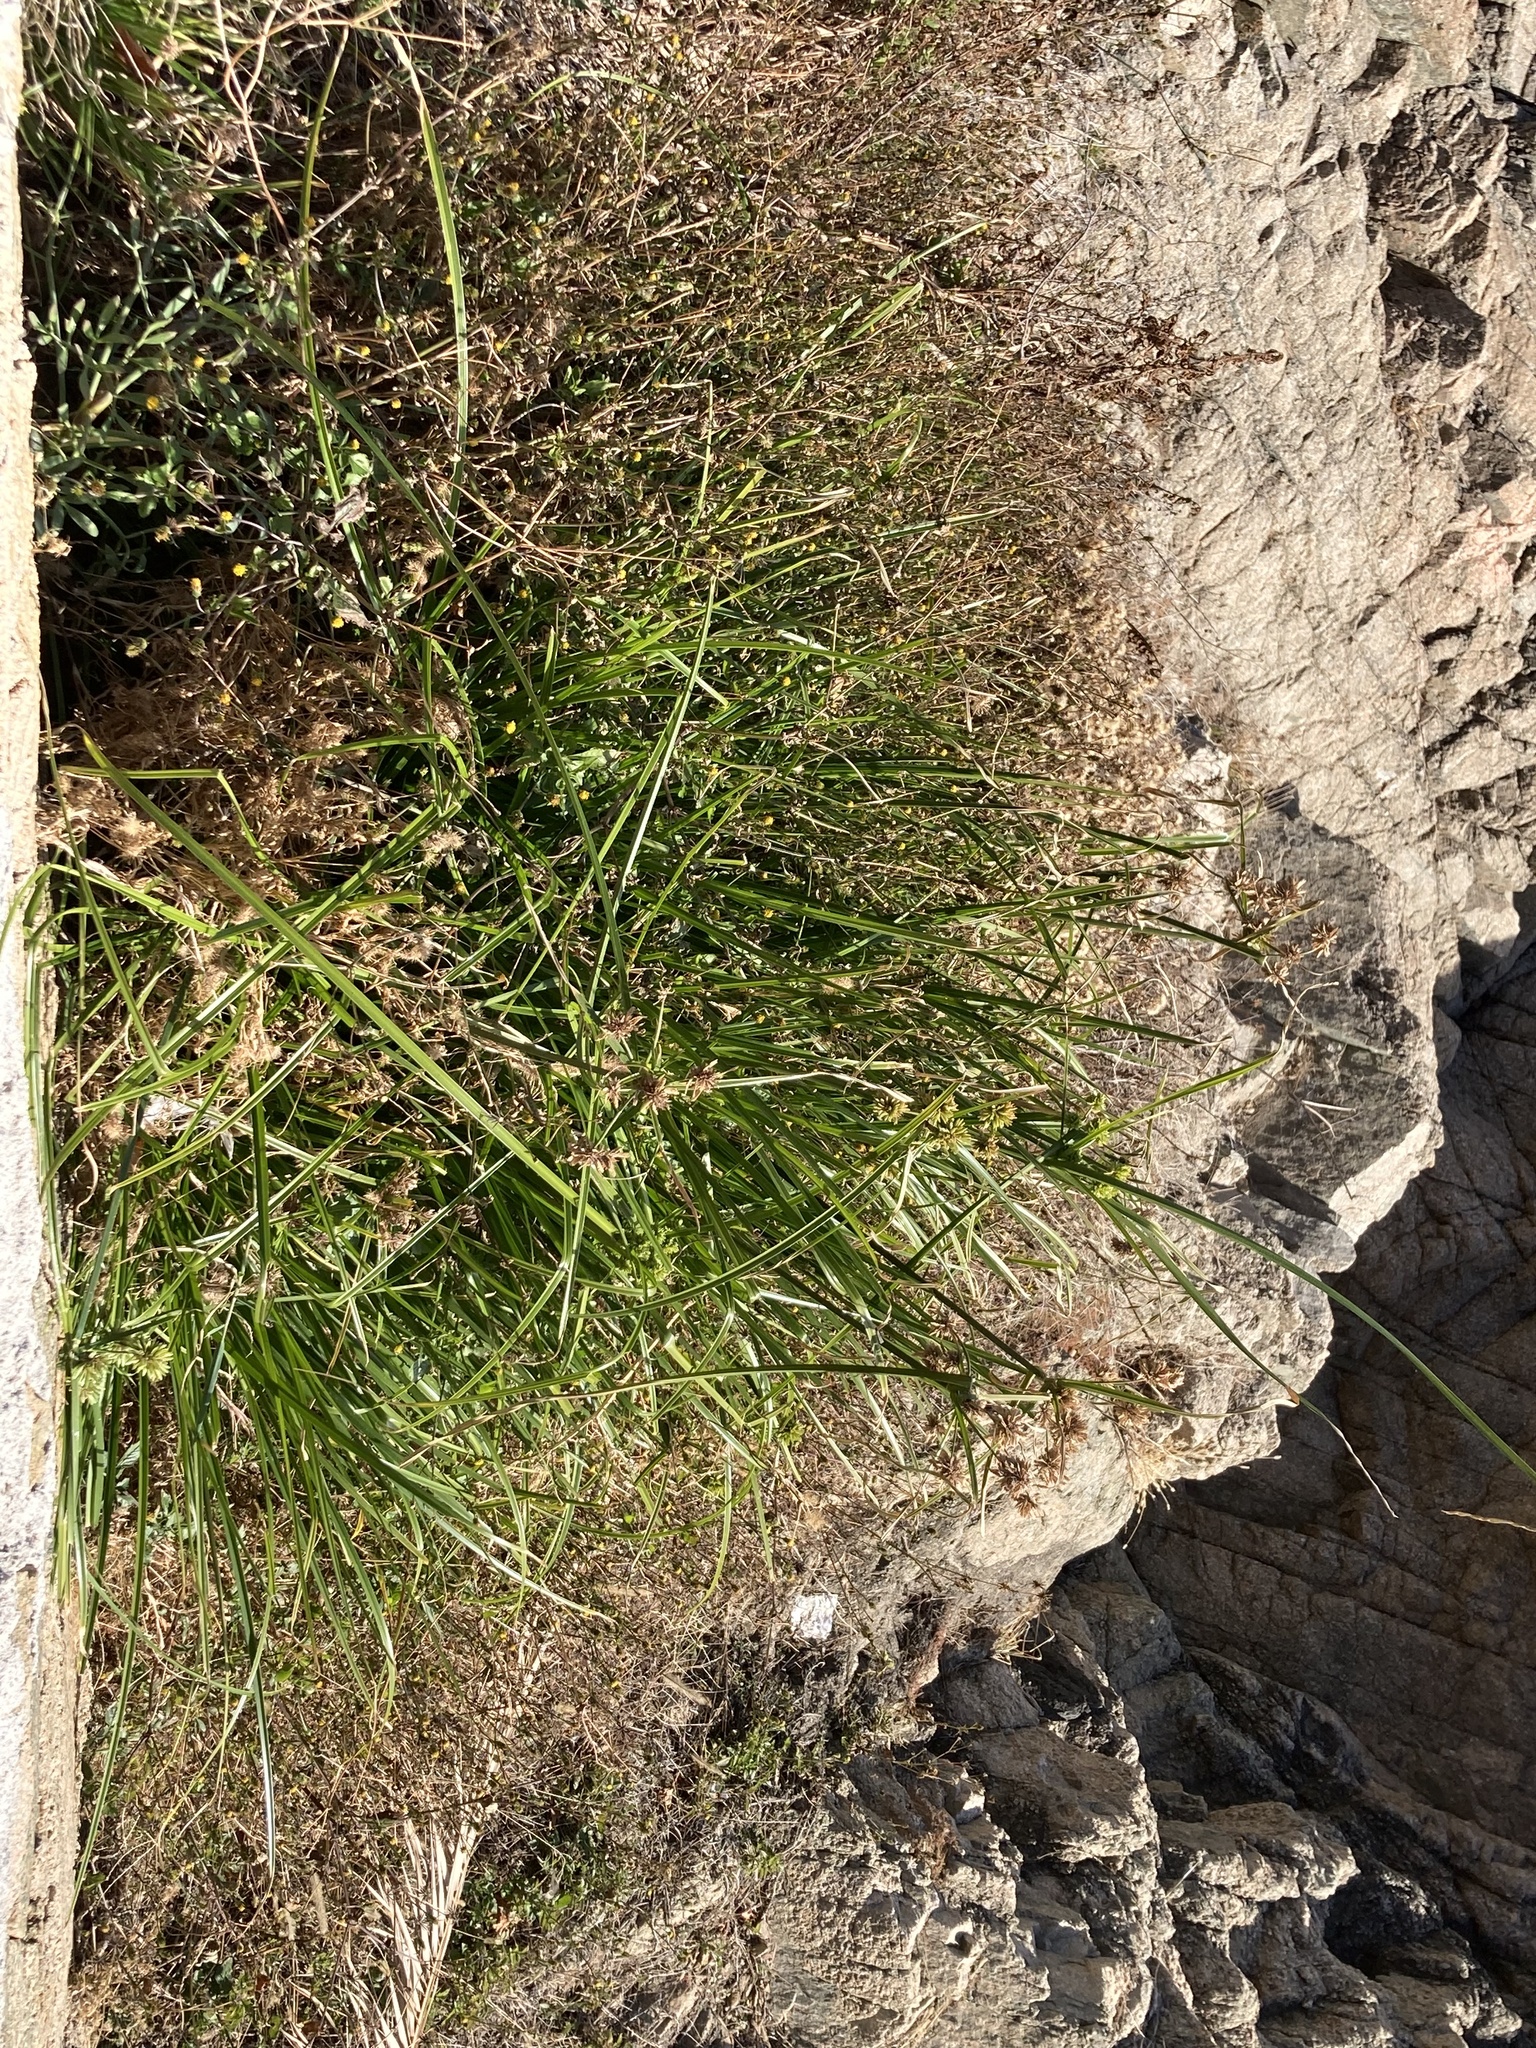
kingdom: Plantae
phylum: Tracheophyta
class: Liliopsida
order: Poales
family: Cyperaceae
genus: Cyperus
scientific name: Cyperus eragrostis
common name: Tall flatsedge
